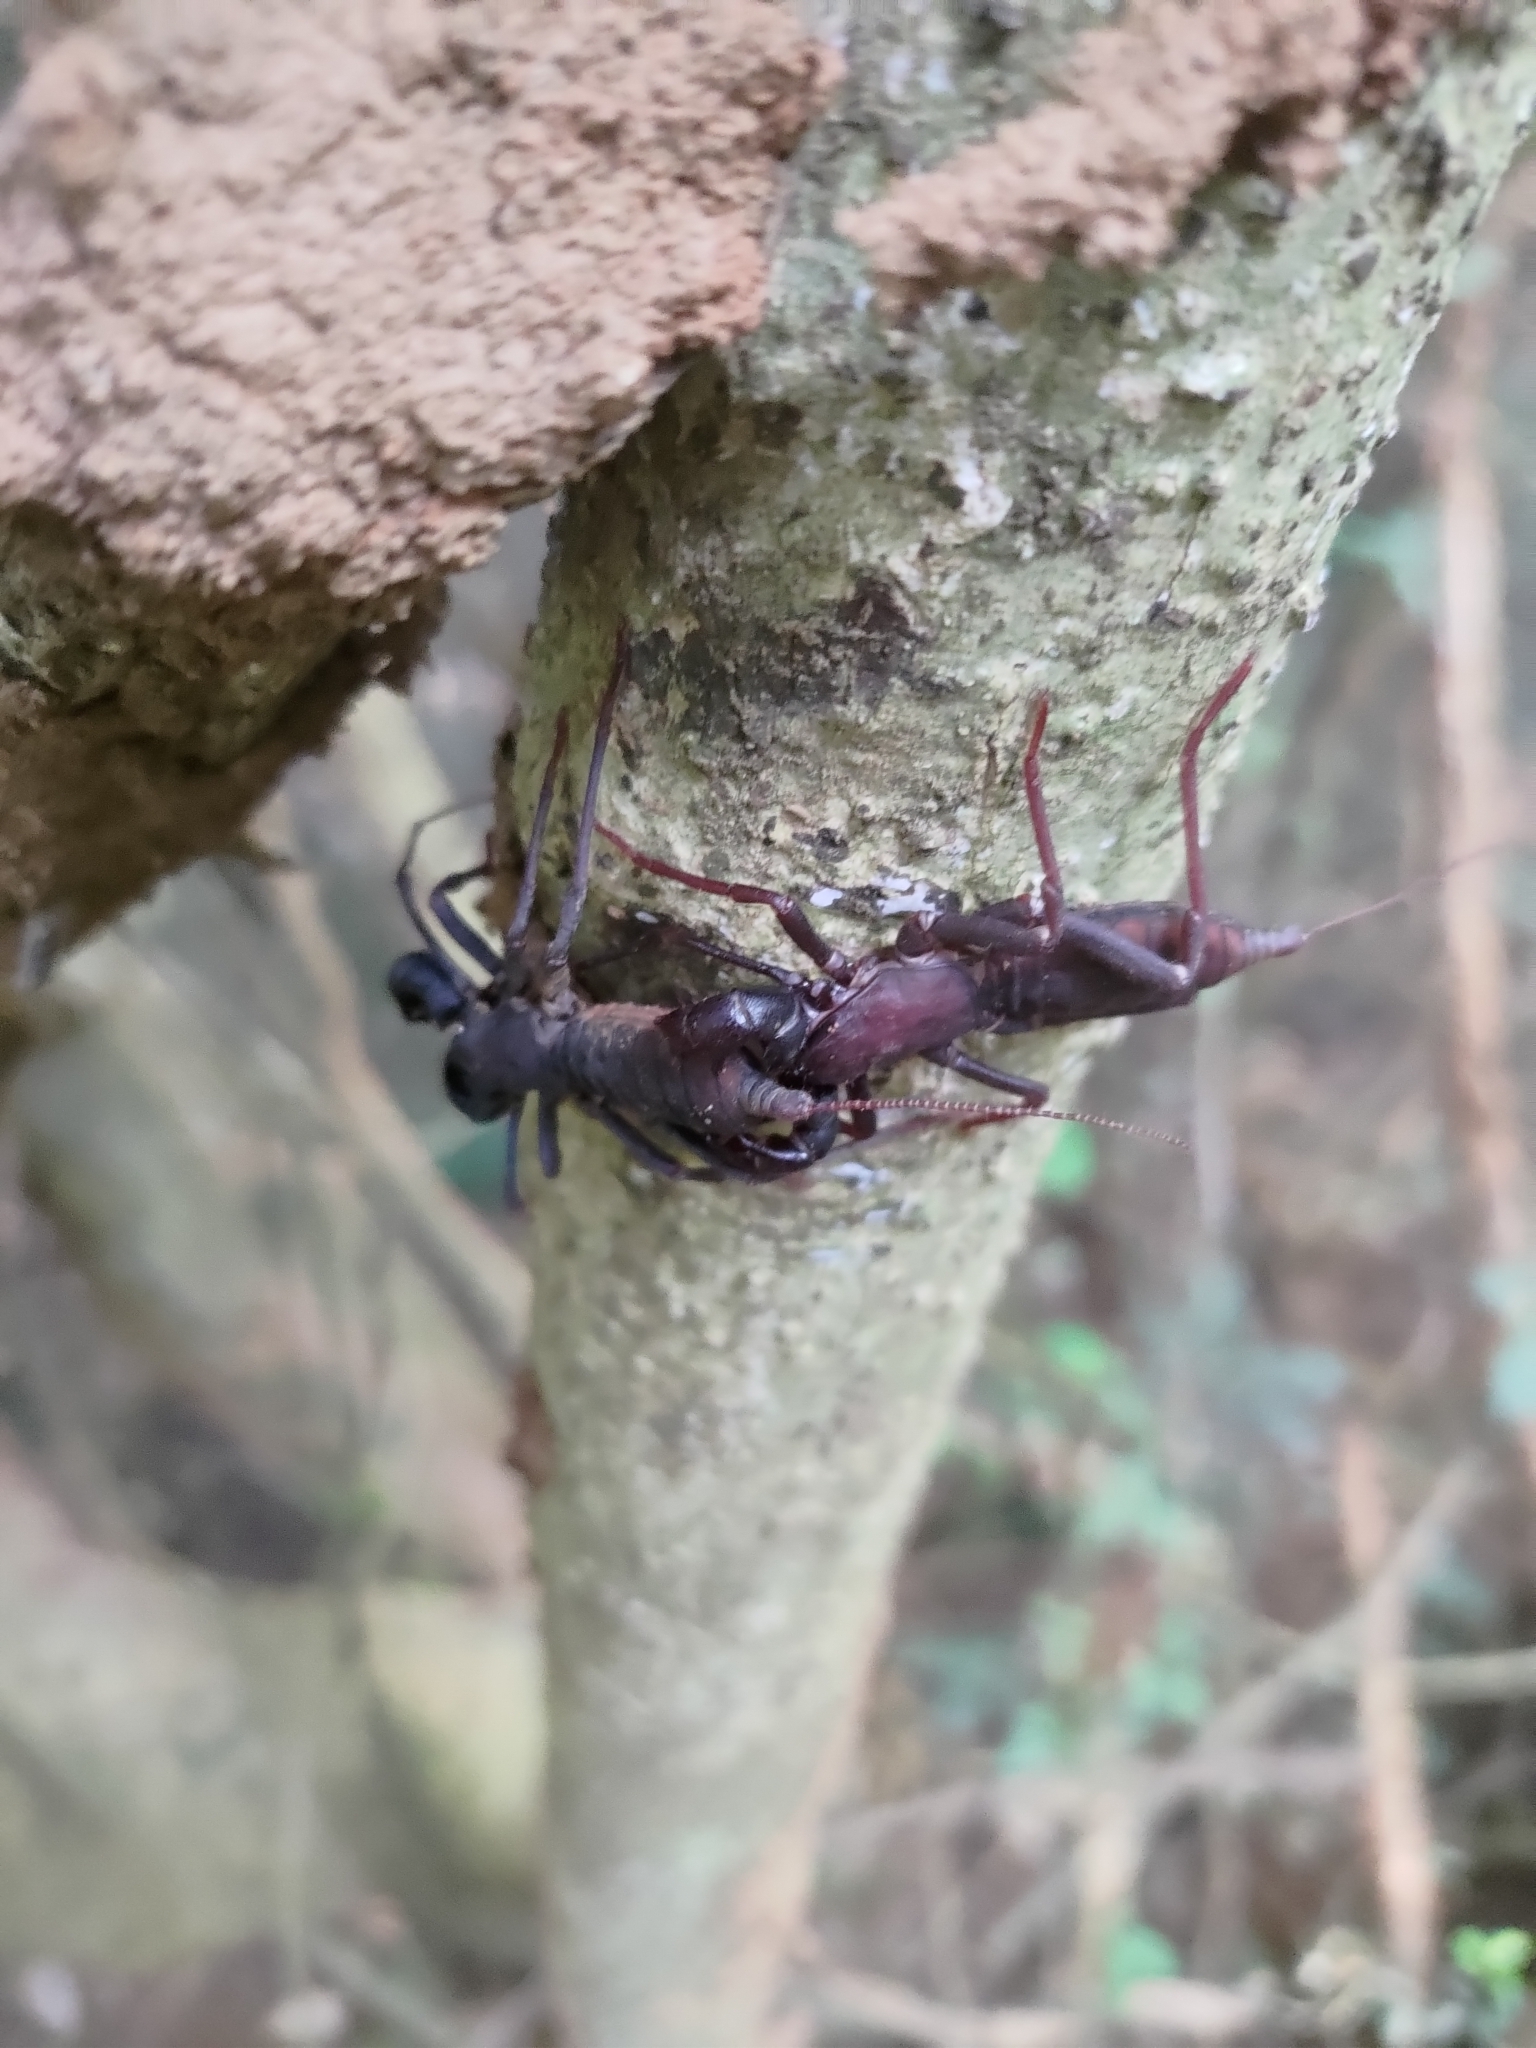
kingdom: Animalia
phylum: Arthropoda
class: Arachnida
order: Uropygi
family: Thelyphonidae
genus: Typopeltis
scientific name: Typopeltis crucifer
